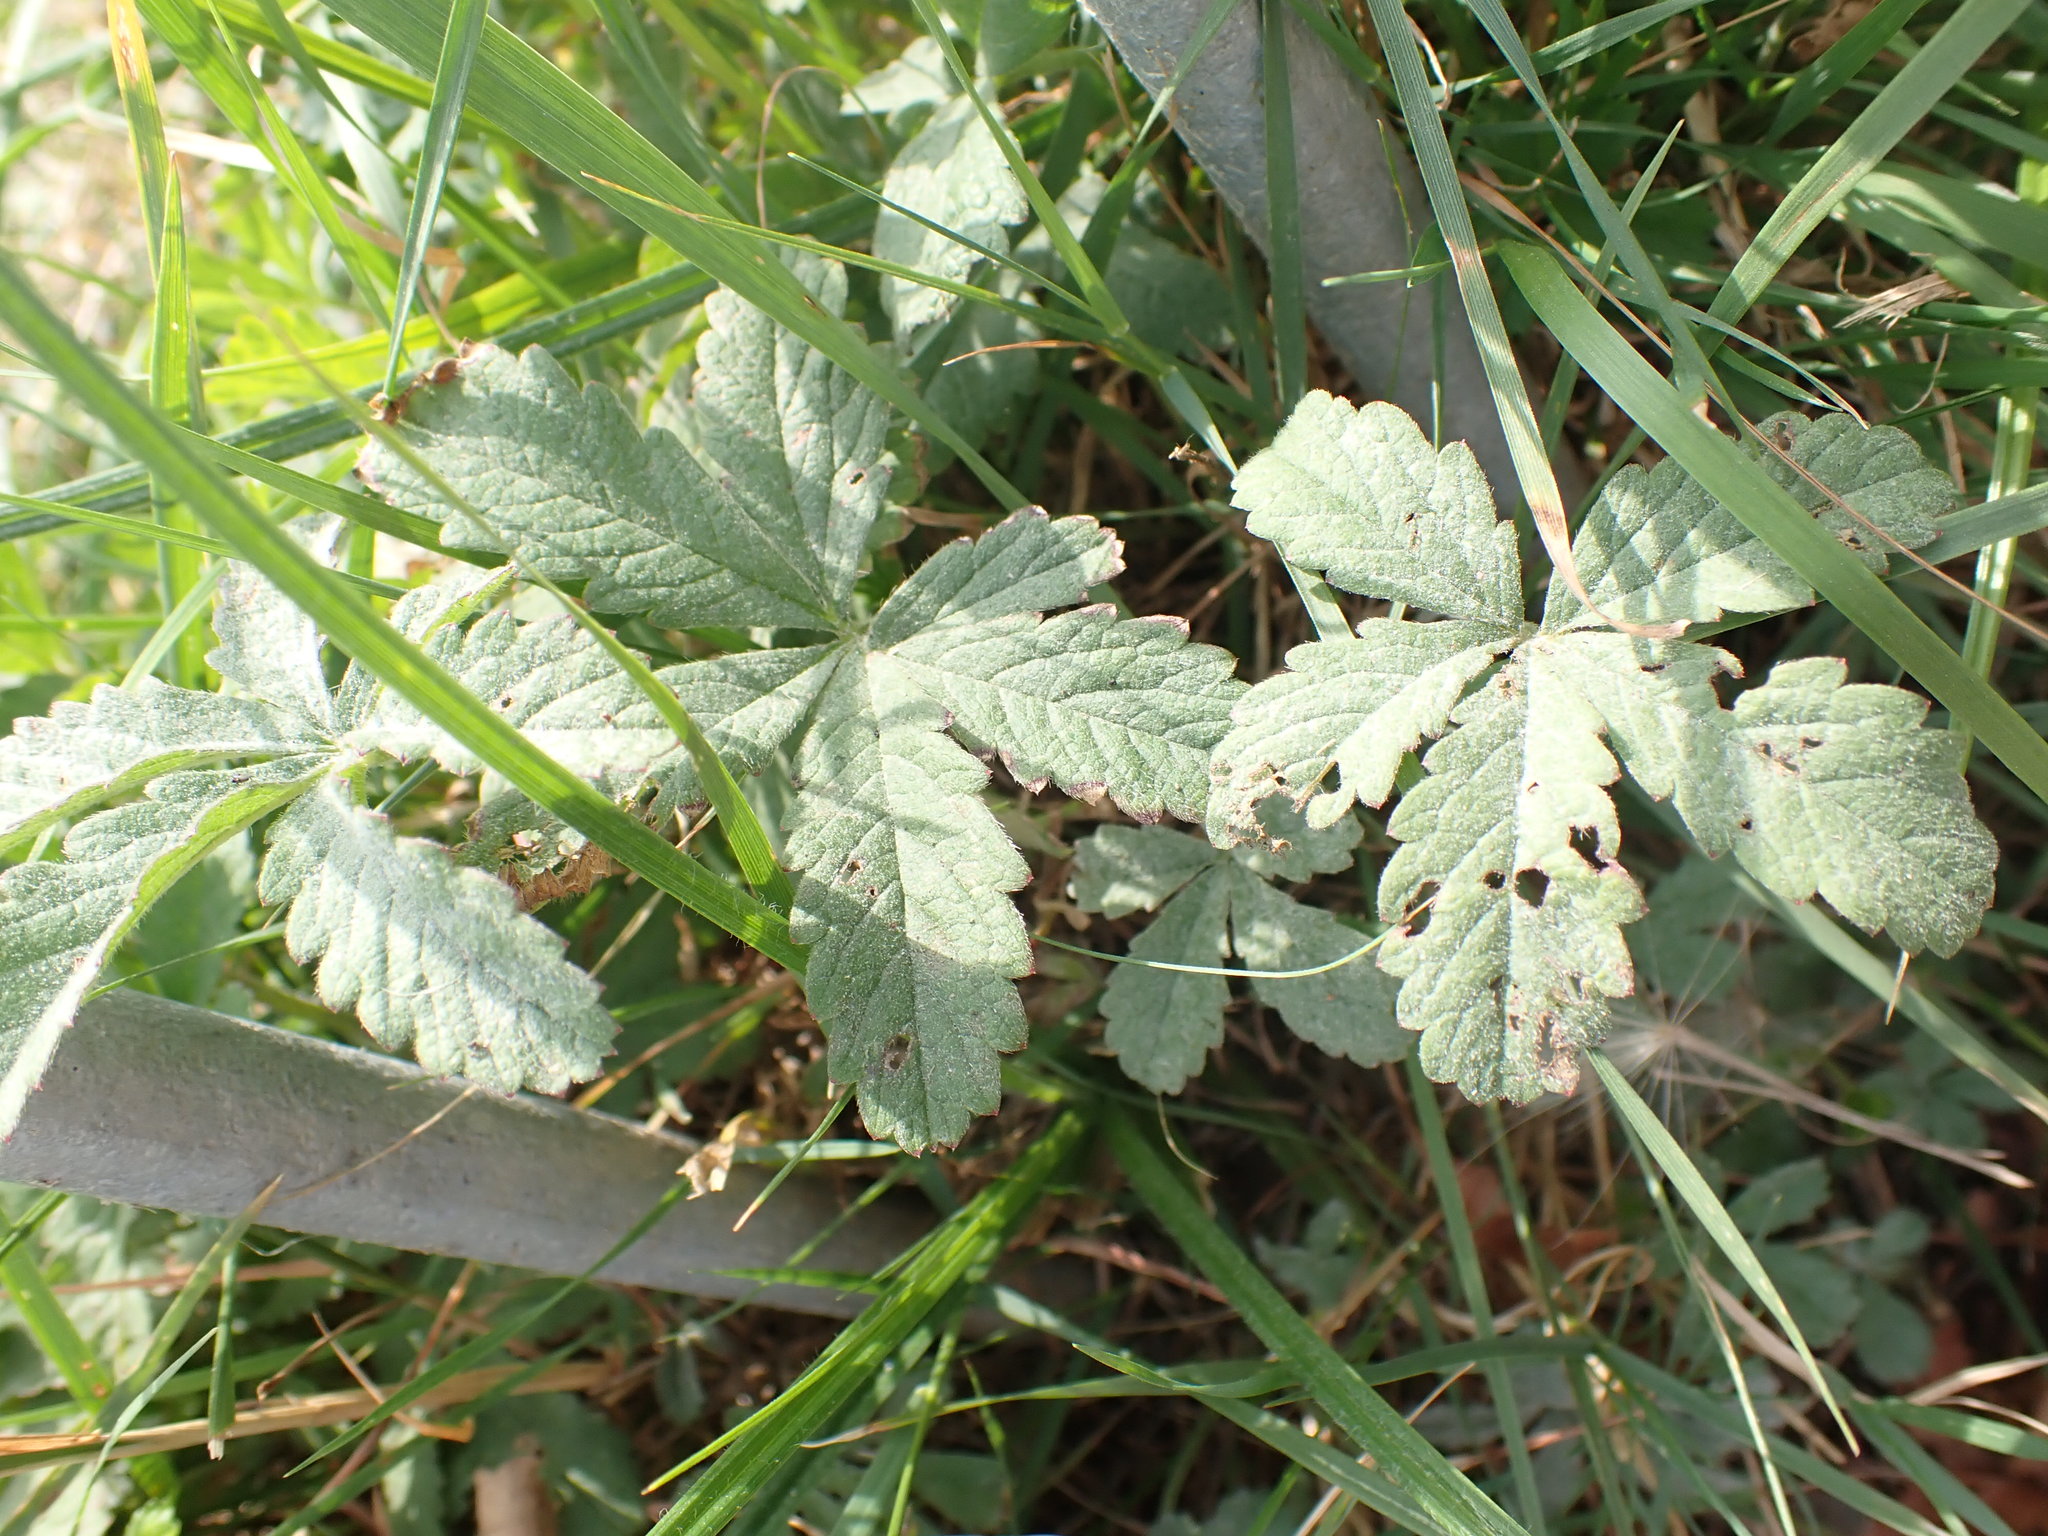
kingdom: Plantae
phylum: Tracheophyta
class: Magnoliopsida
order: Rosales
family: Rosaceae
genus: Potentilla
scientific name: Potentilla reptans
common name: Creeping cinquefoil
